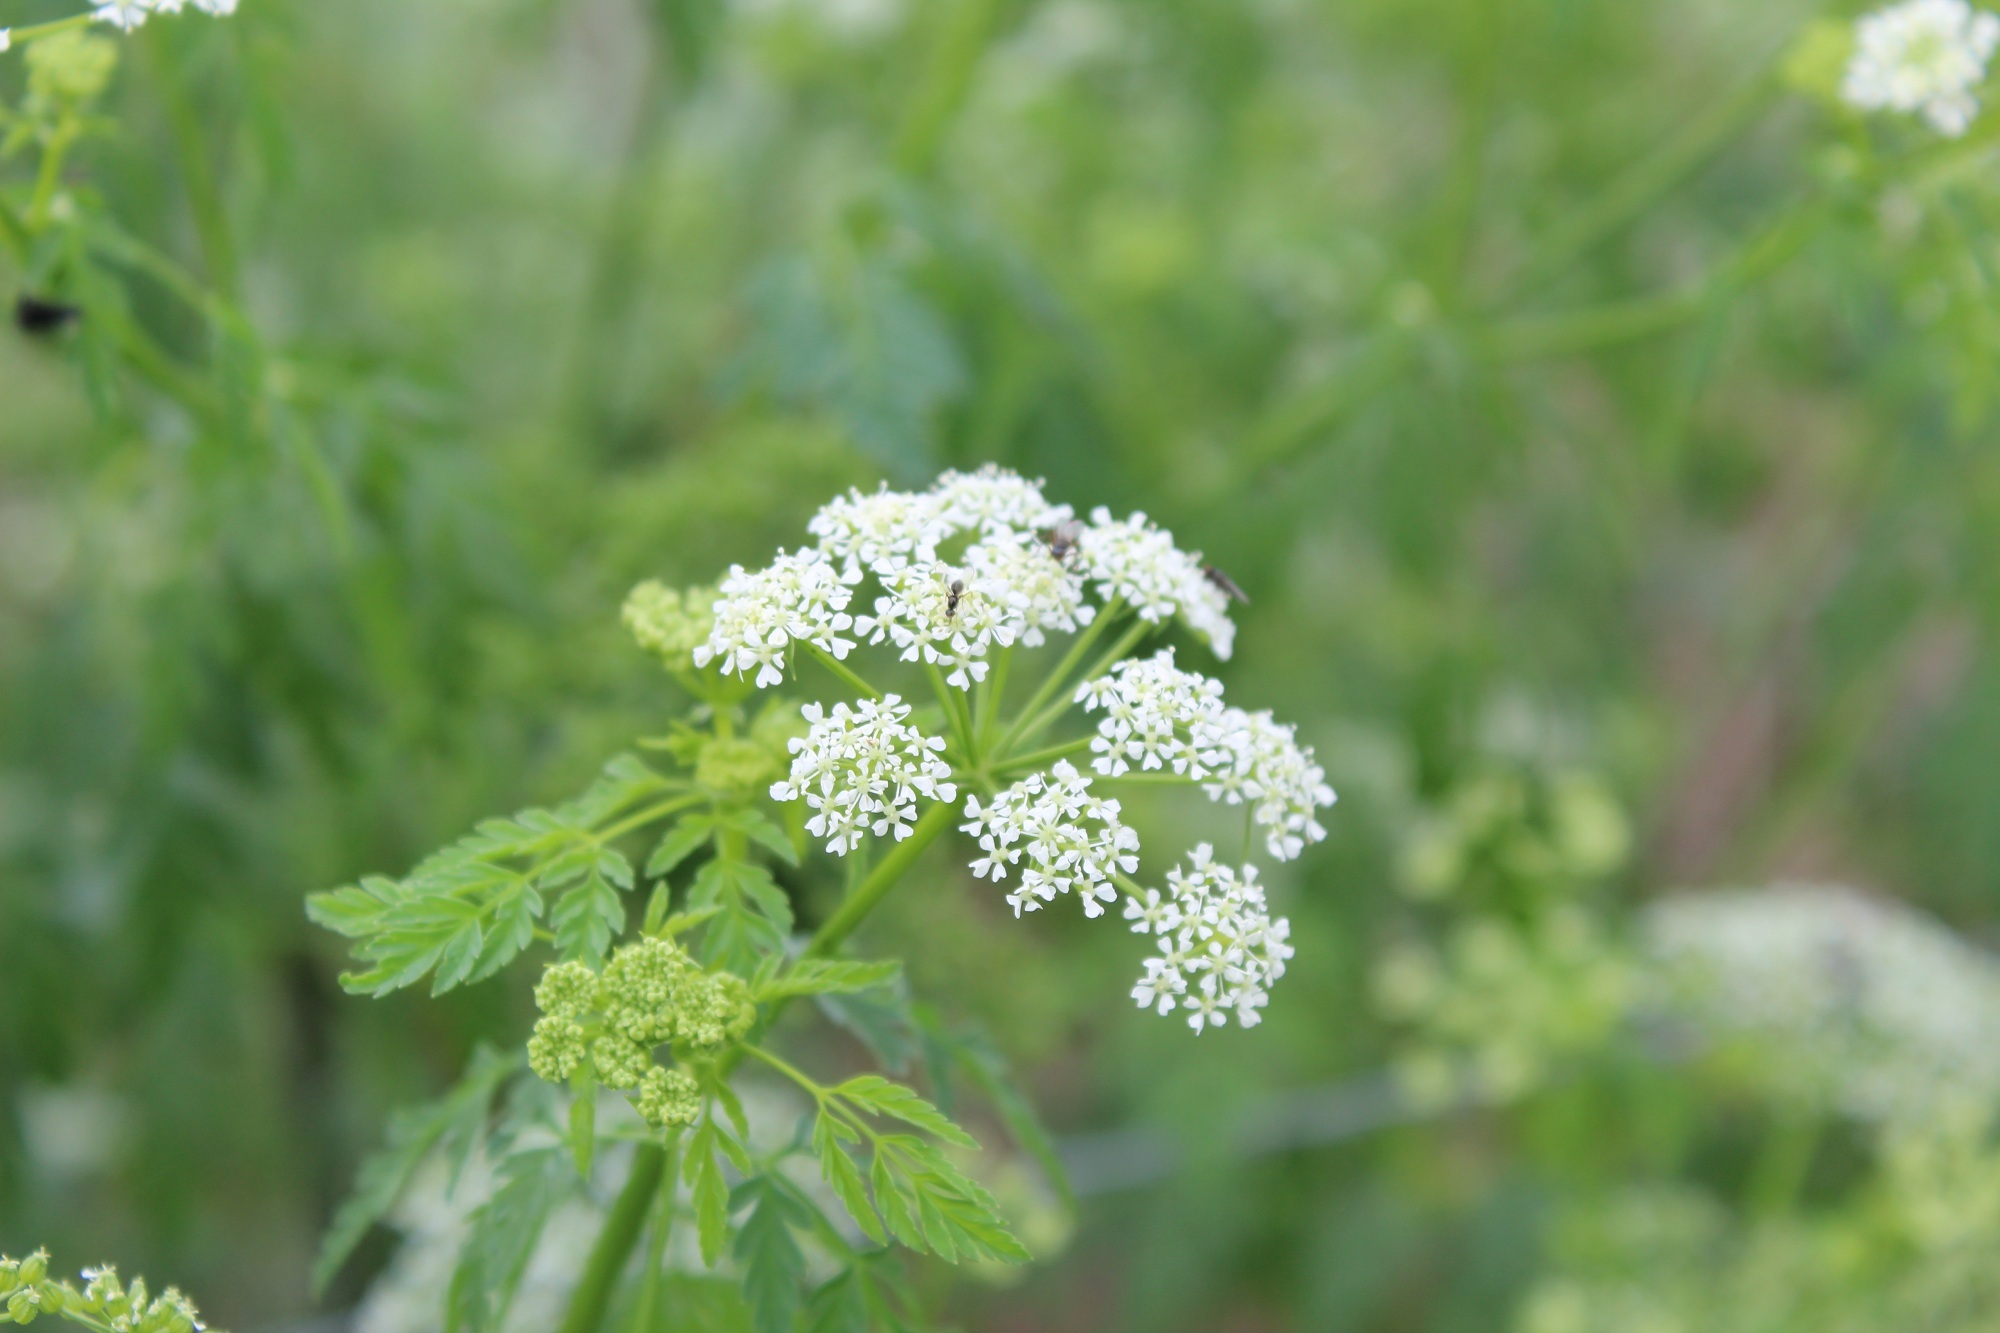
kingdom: Plantae
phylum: Tracheophyta
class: Magnoliopsida
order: Apiales
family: Apiaceae
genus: Conium
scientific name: Conium maculatum
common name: Hemlock
